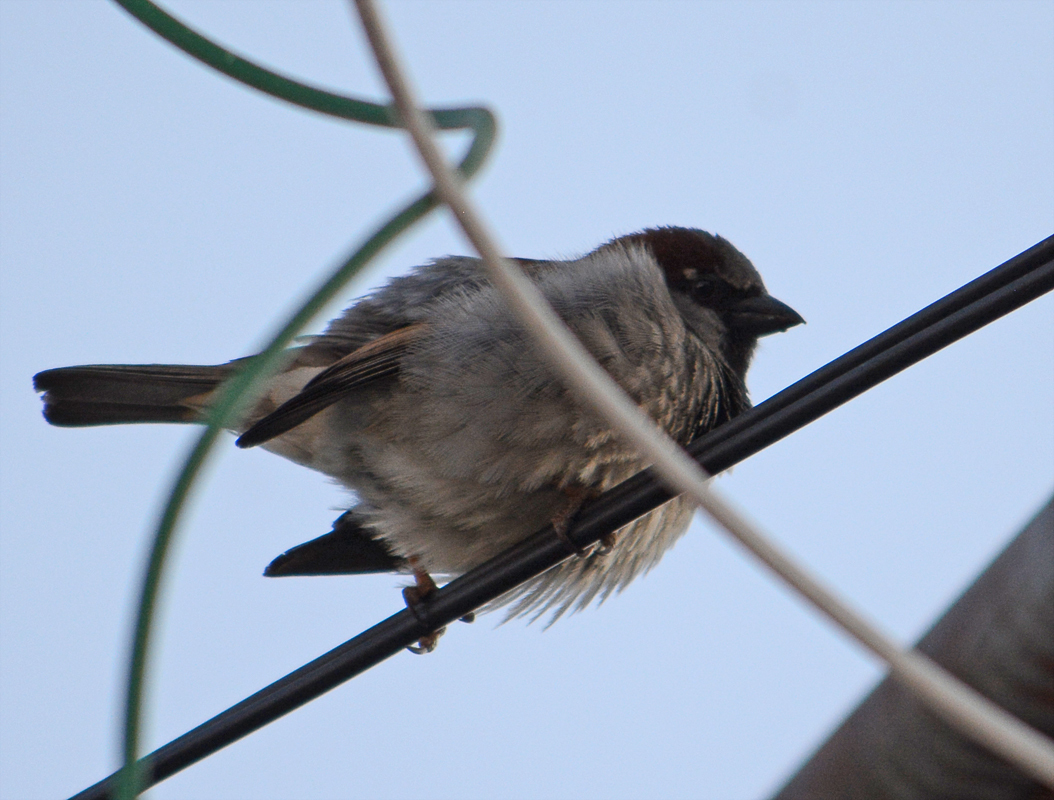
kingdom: Animalia
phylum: Chordata
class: Aves
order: Passeriformes
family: Passeridae
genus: Passer
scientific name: Passer domesticus
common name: House sparrow
